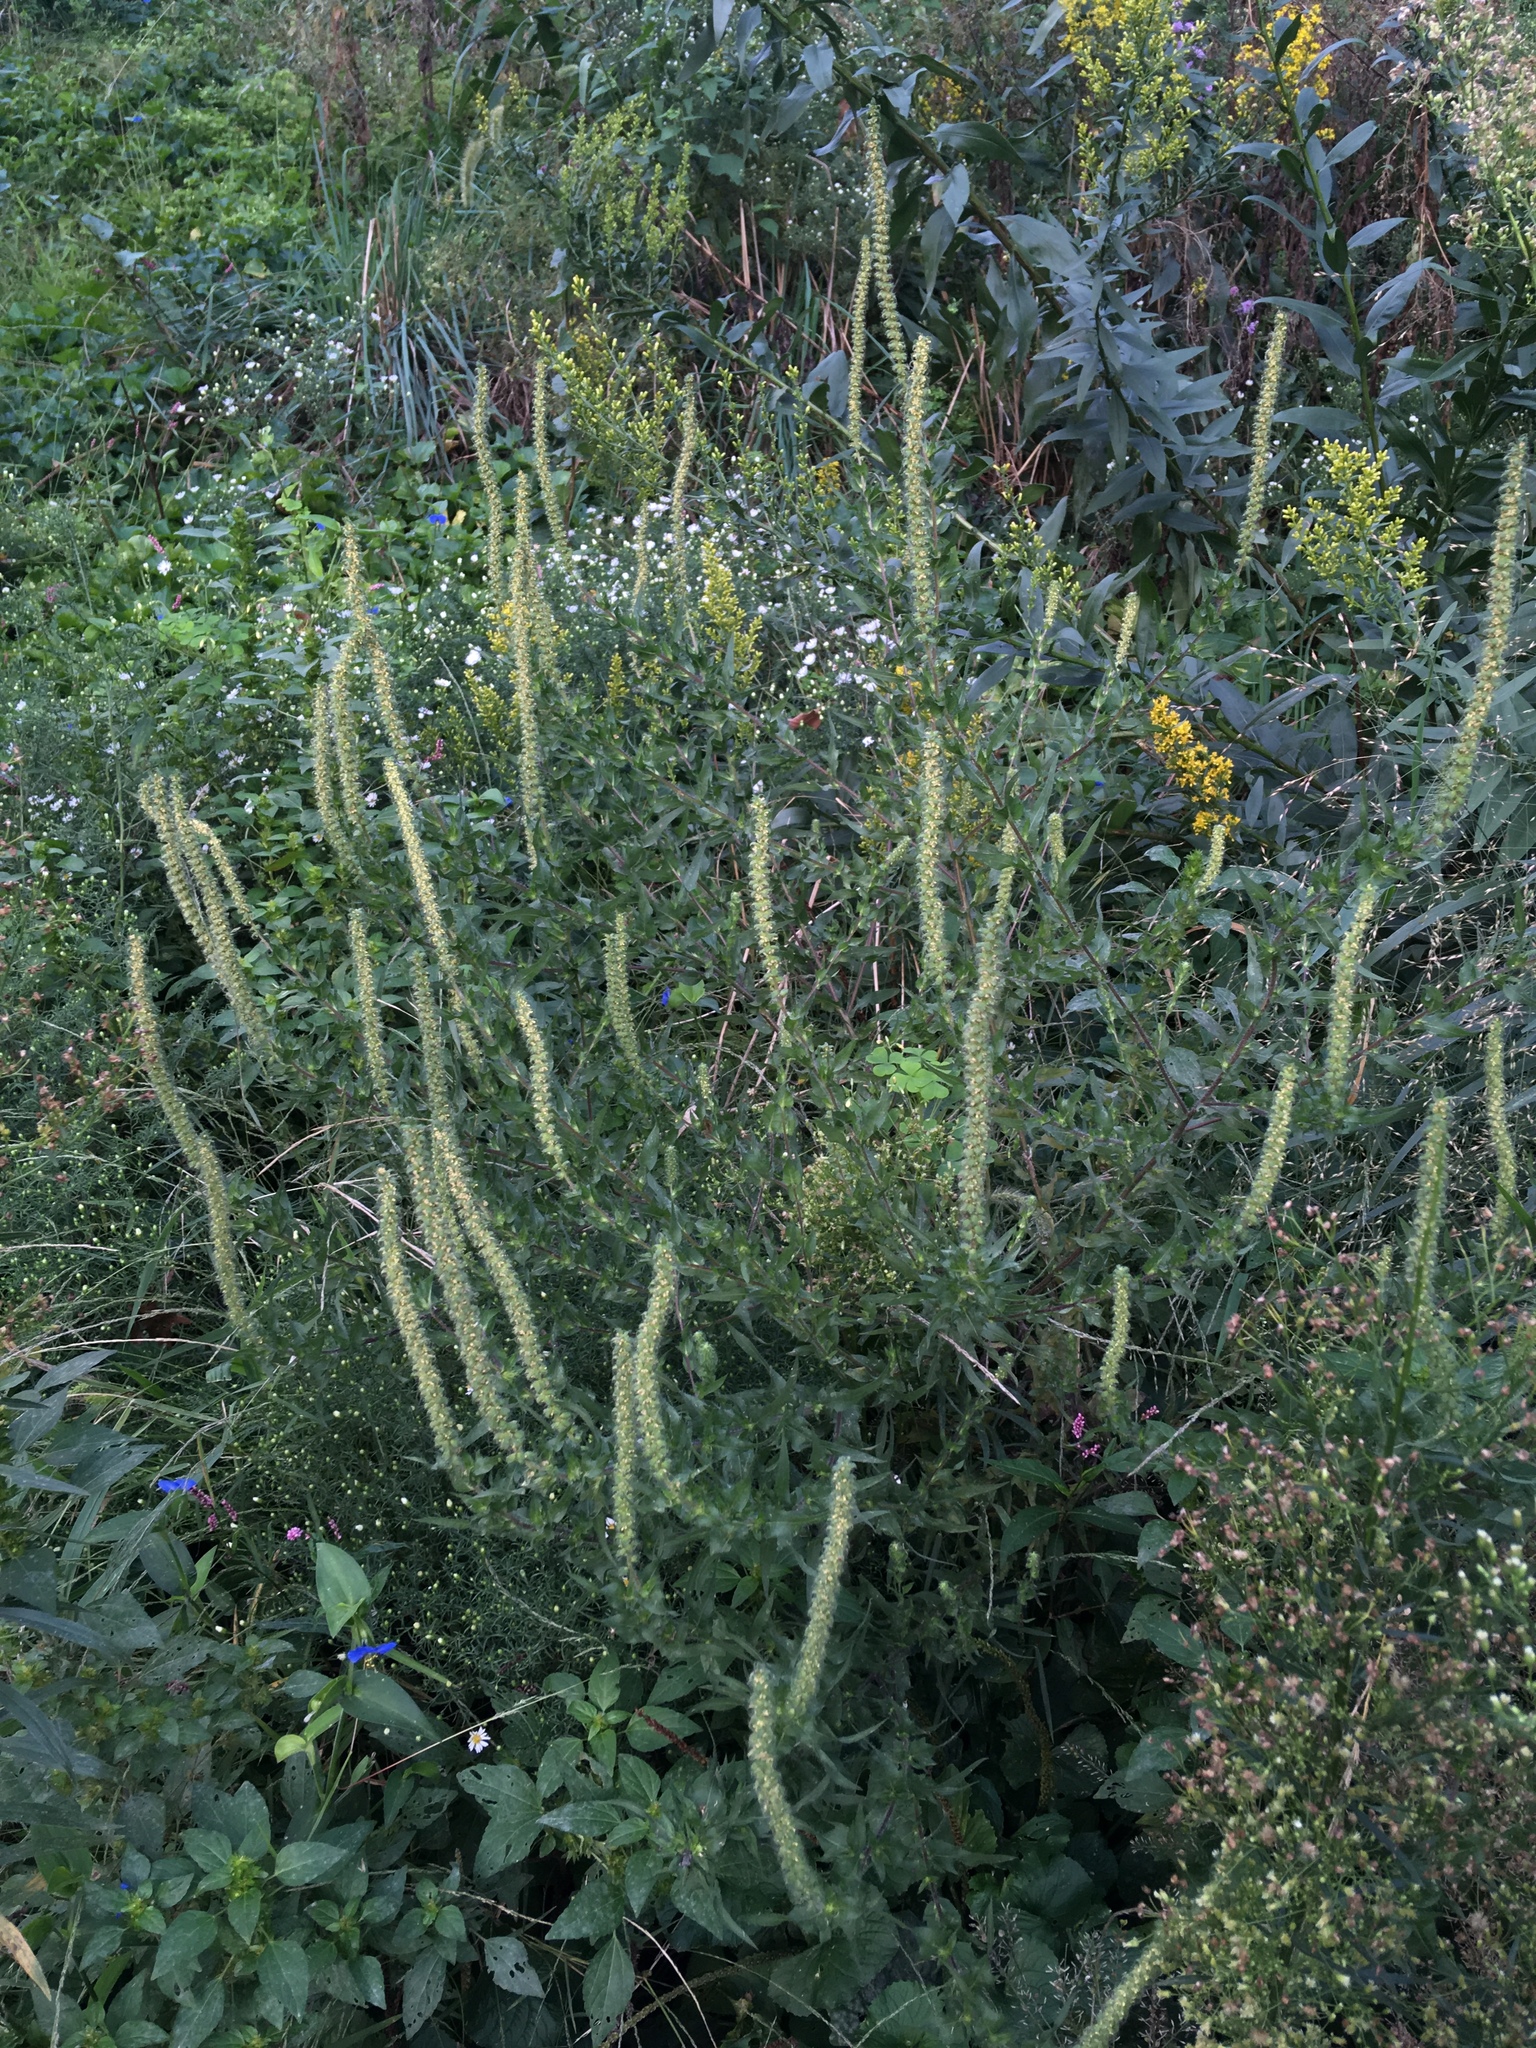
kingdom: Plantae
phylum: Tracheophyta
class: Magnoliopsida
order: Asterales
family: Asteraceae
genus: Ambrosia
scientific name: Ambrosia artemisiifolia
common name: Annual ragweed
